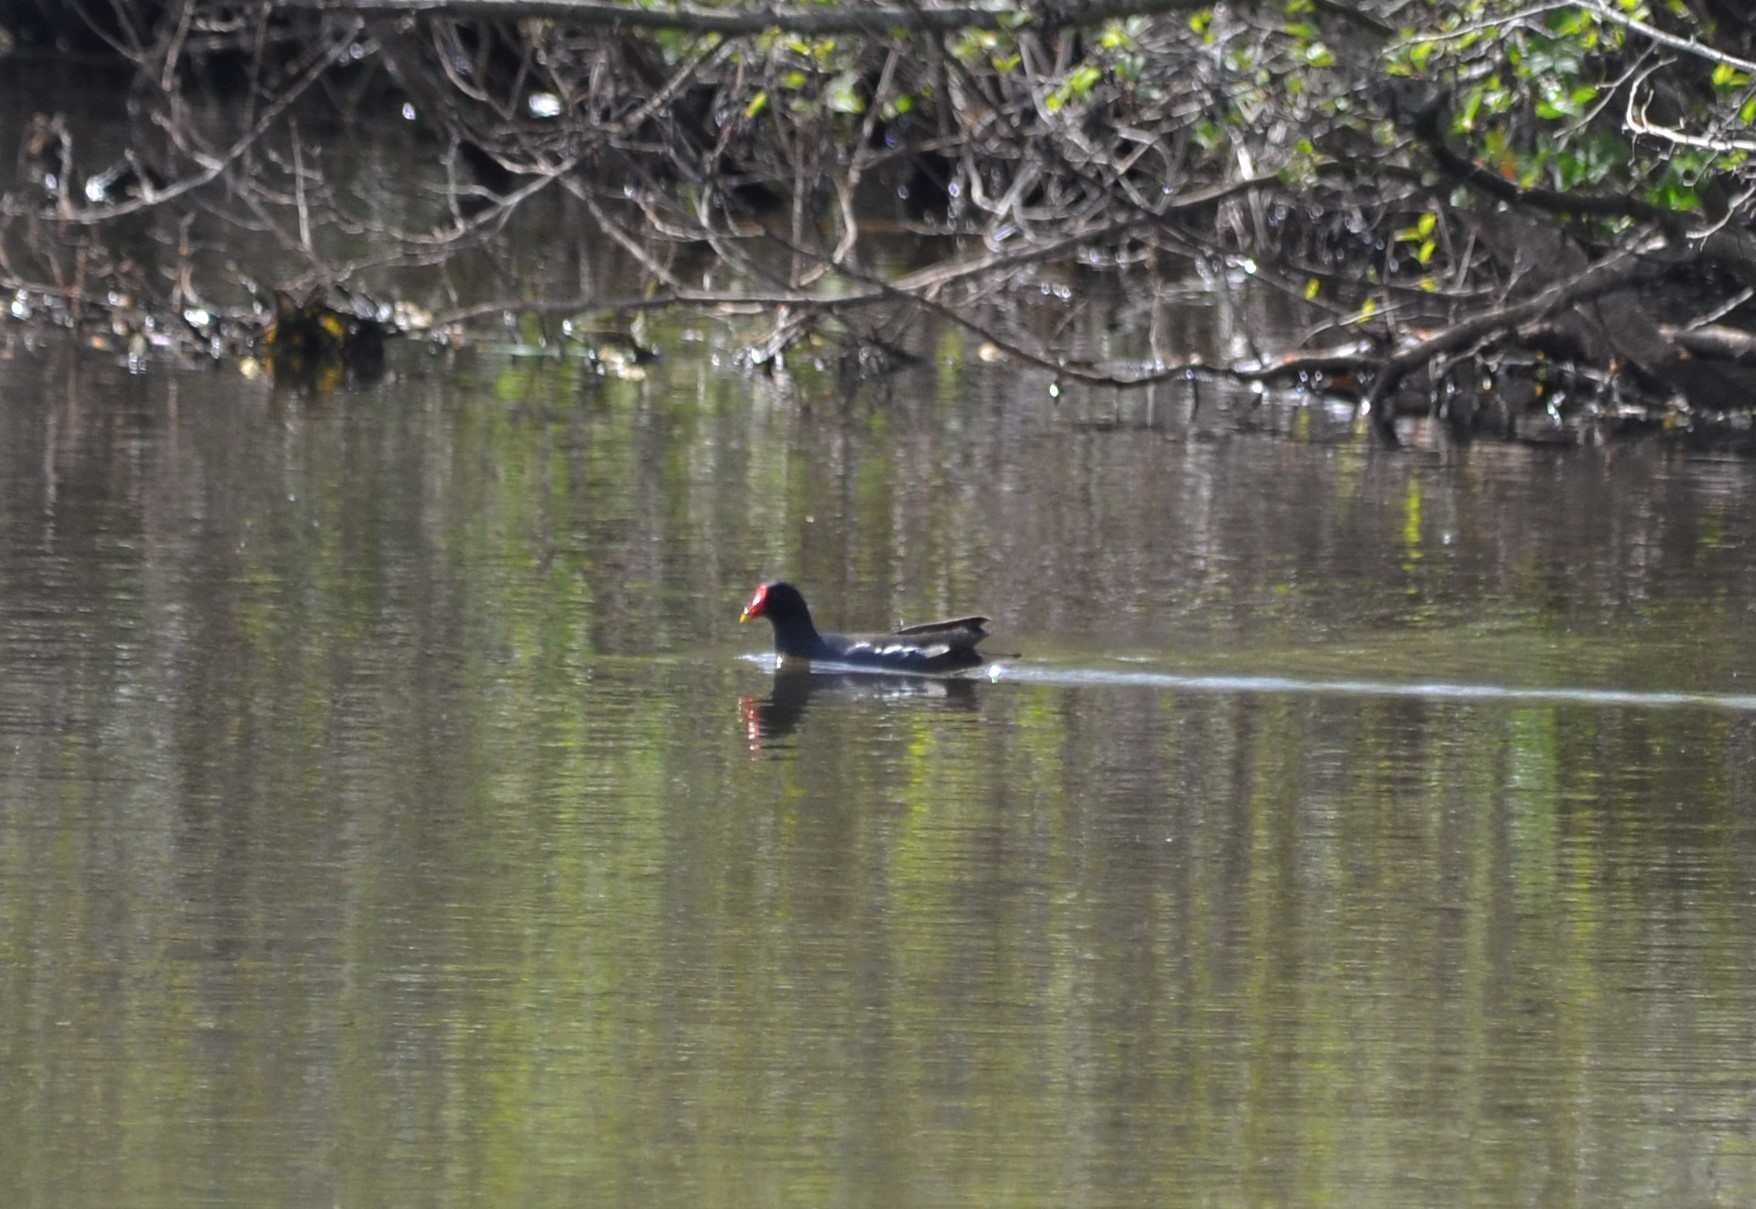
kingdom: Animalia
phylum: Chordata
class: Aves
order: Gruiformes
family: Rallidae
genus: Gallinula
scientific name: Gallinula chloropus
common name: Common moorhen
